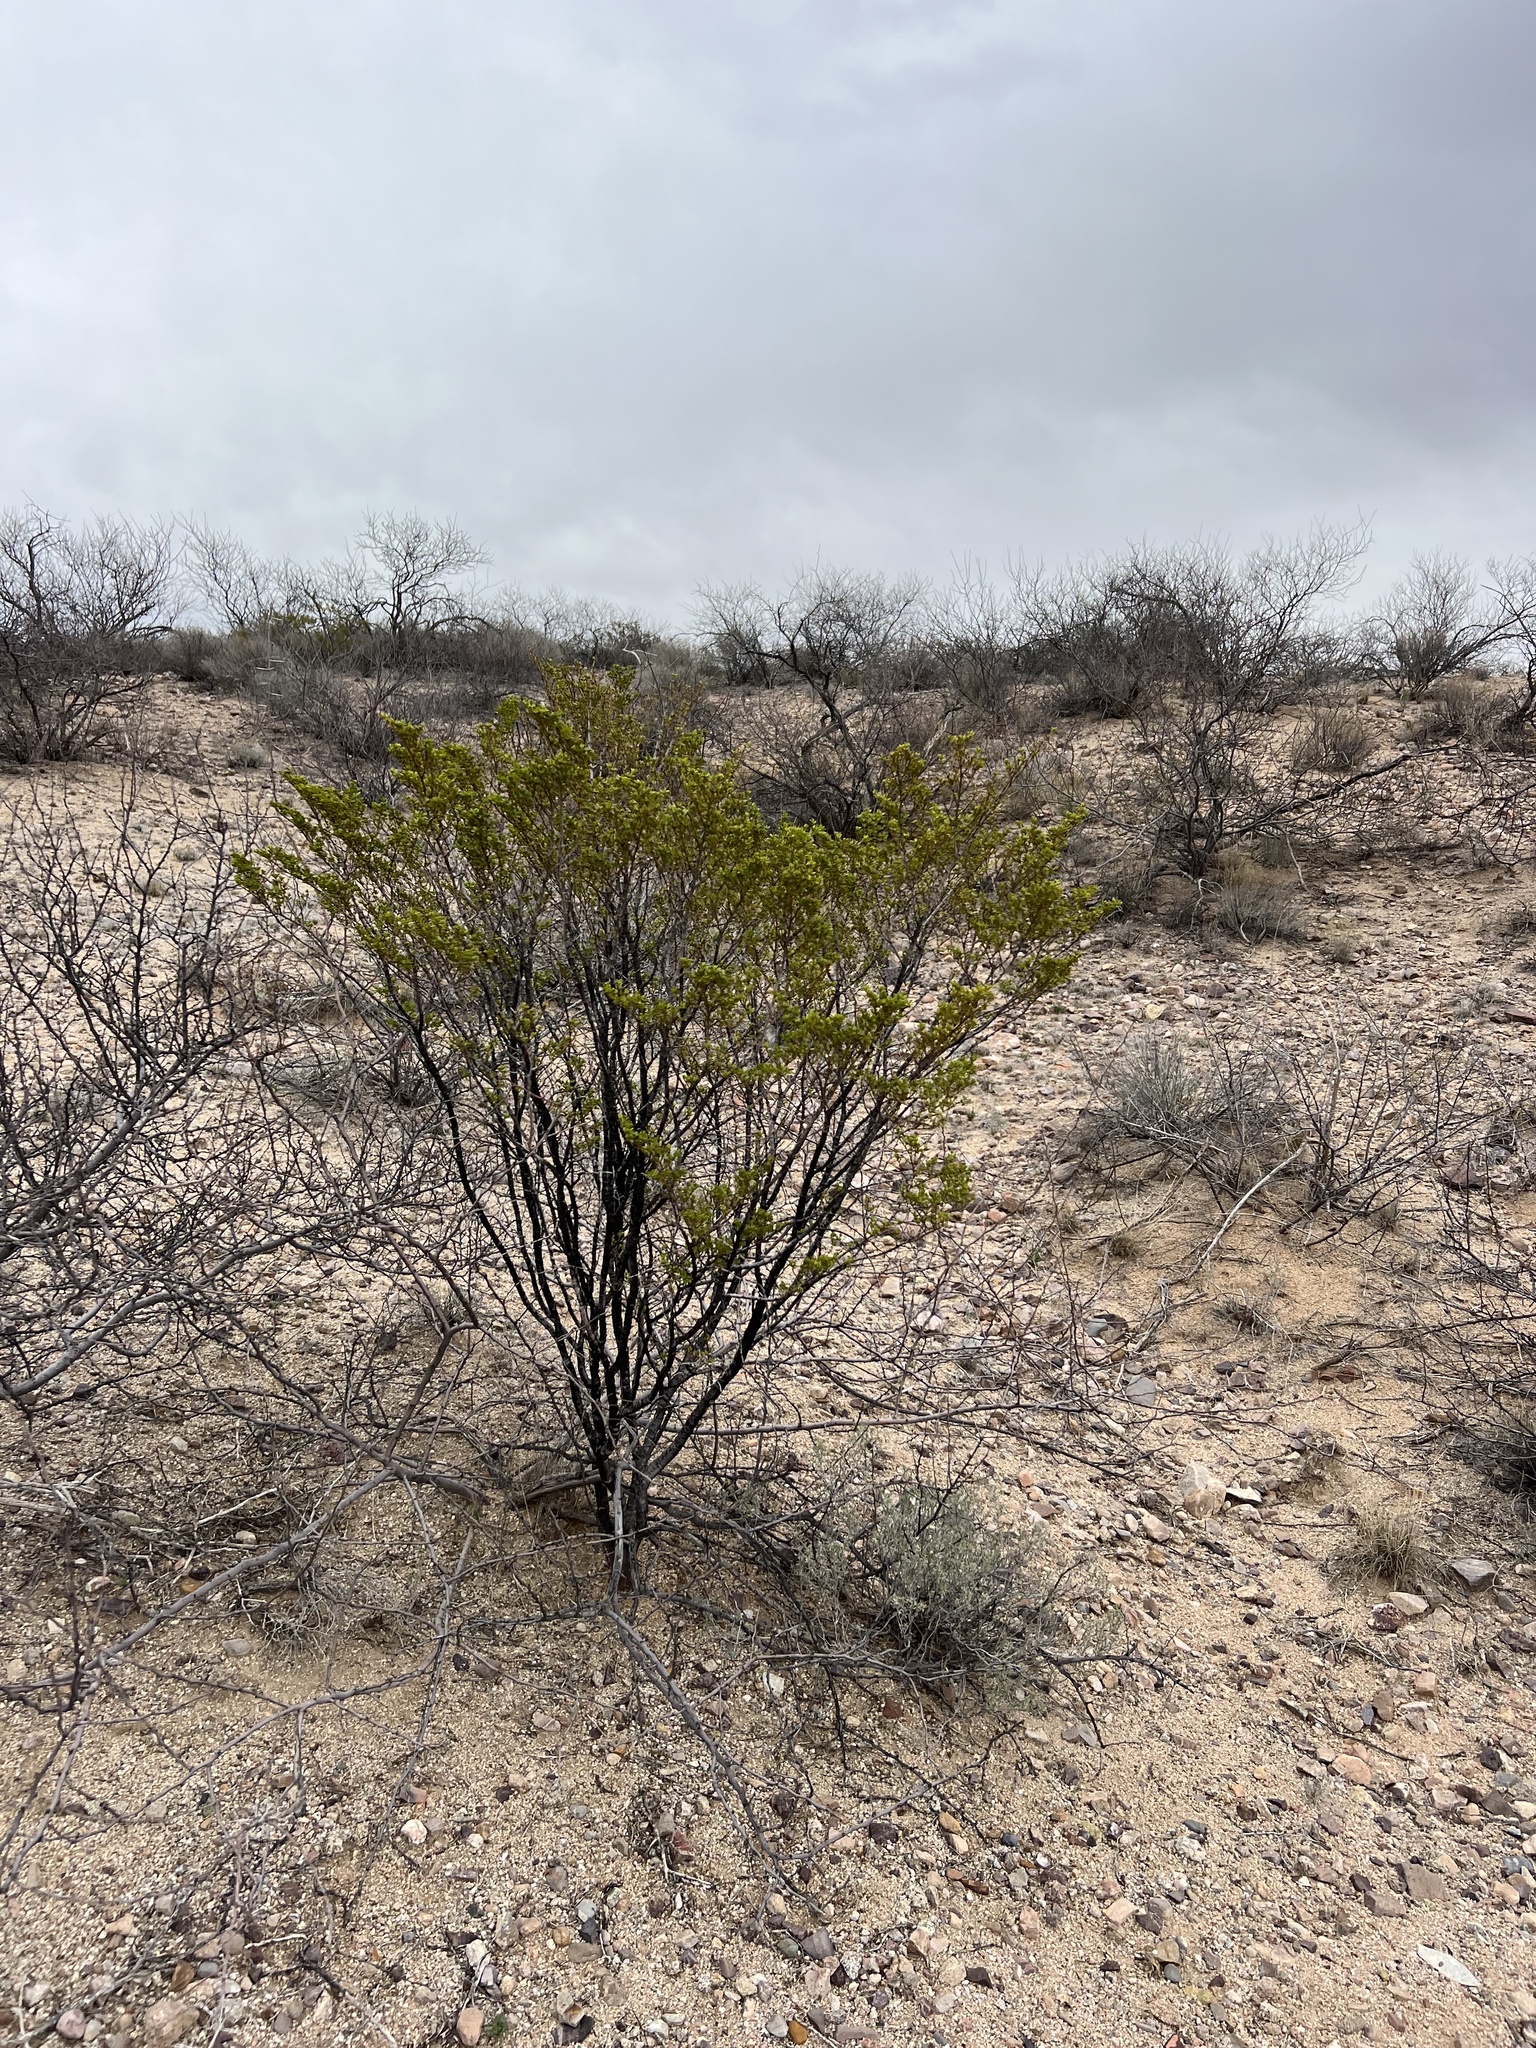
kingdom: Plantae
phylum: Tracheophyta
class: Magnoliopsida
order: Zygophyllales
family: Zygophyllaceae
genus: Larrea
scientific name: Larrea tridentata
